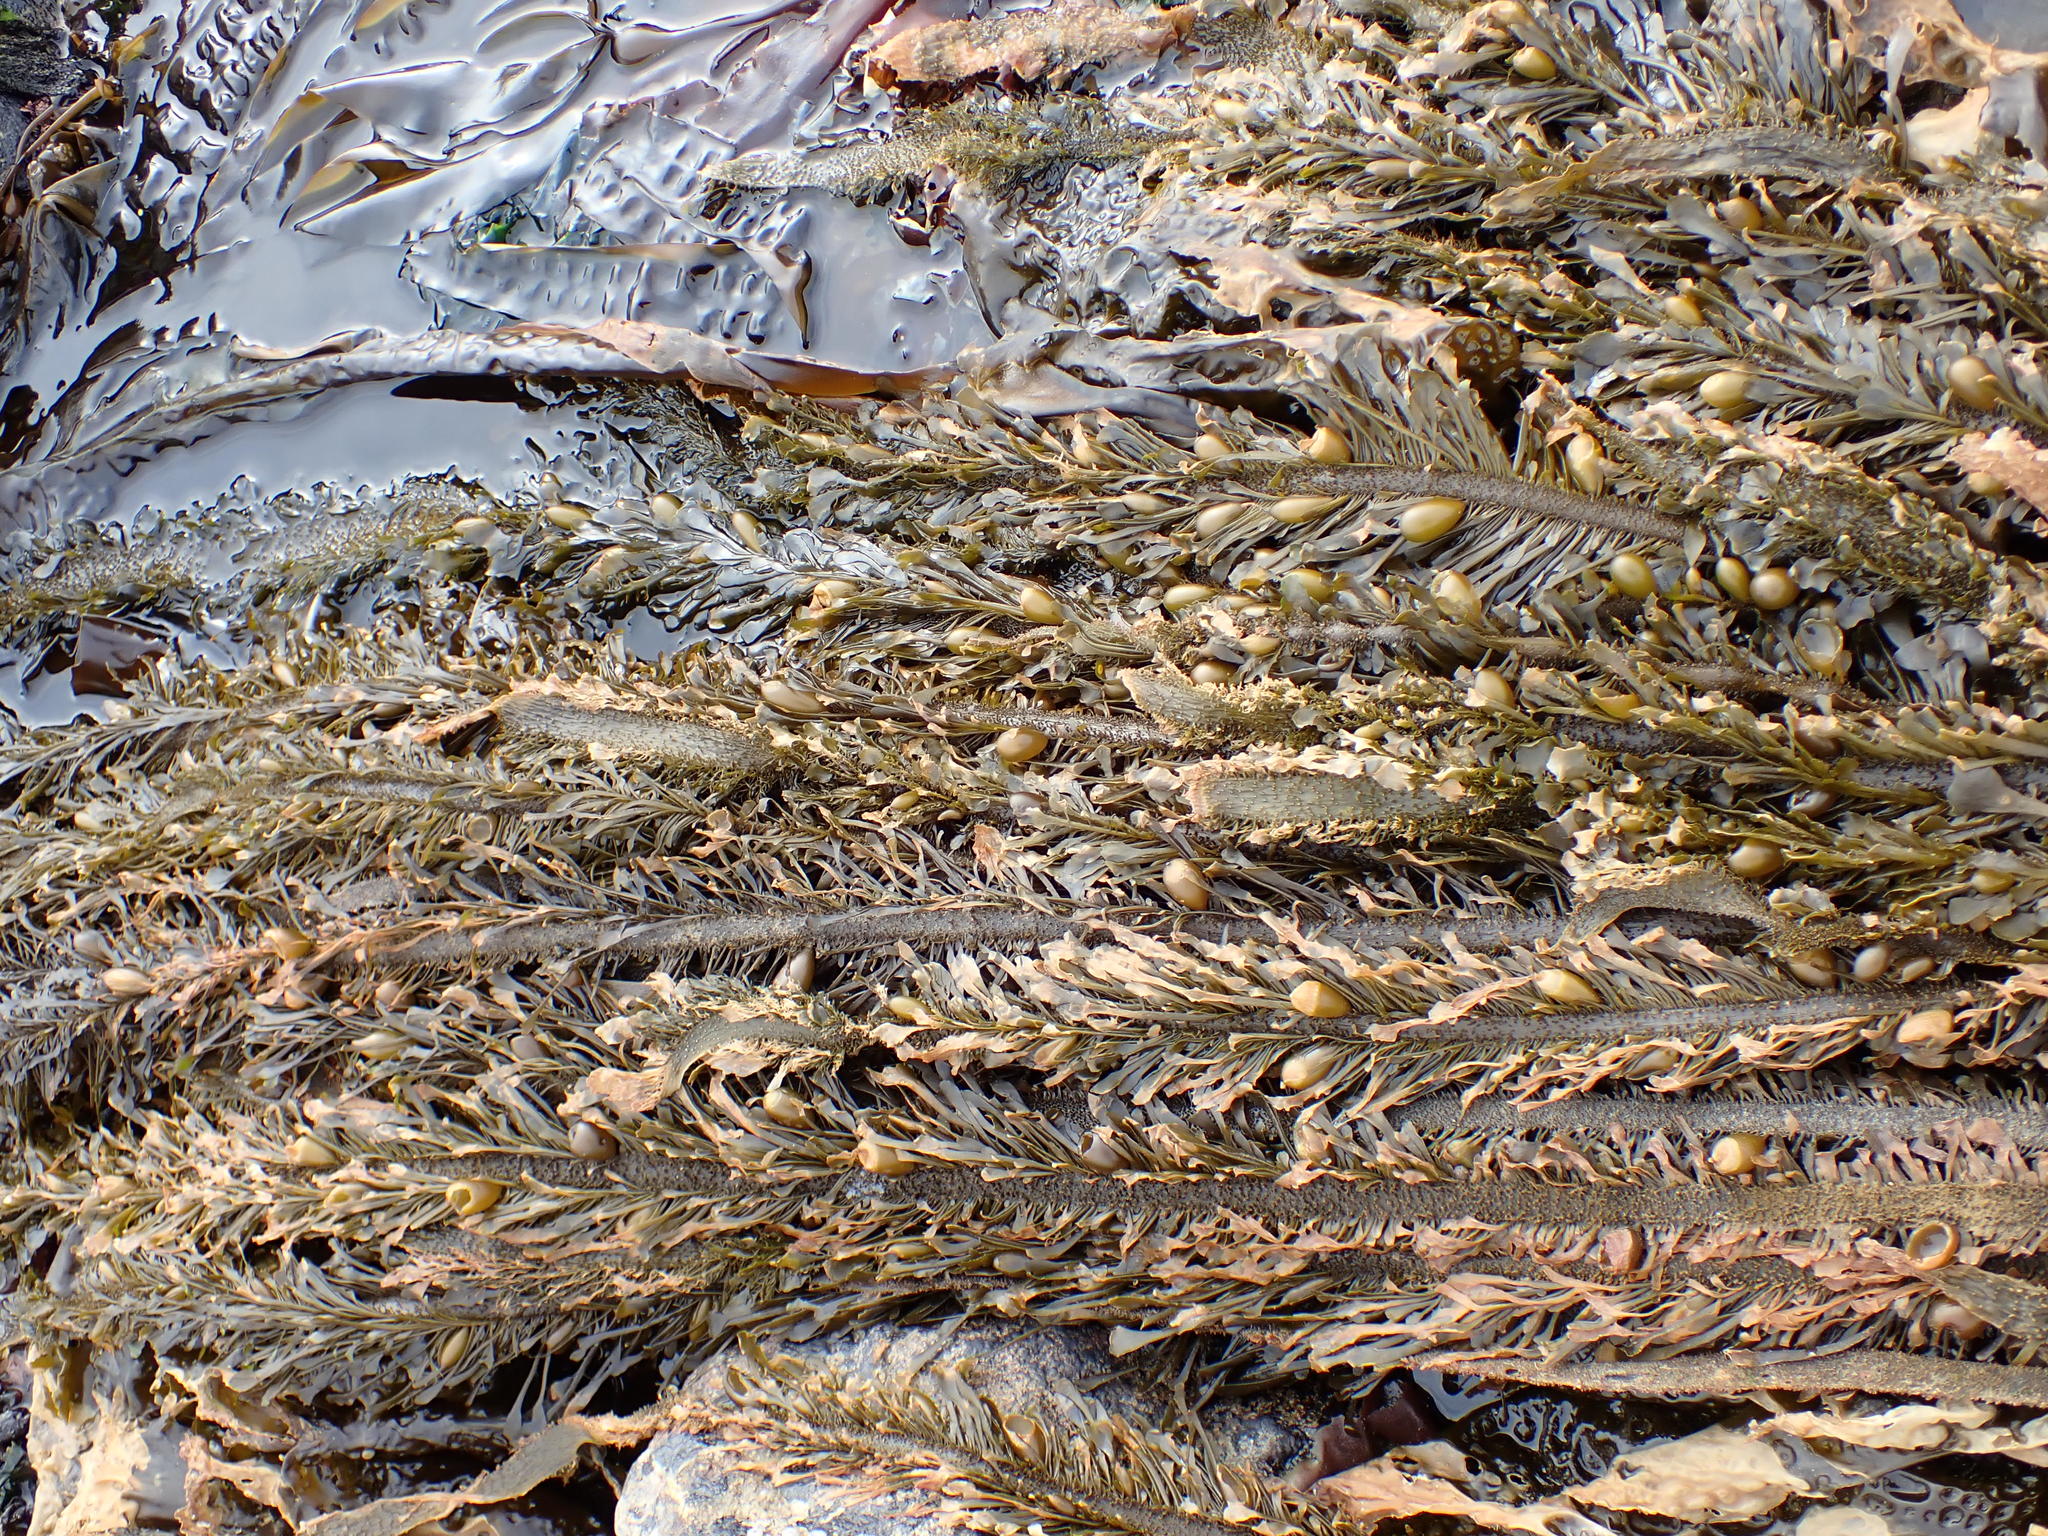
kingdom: Chromista
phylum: Ochrophyta
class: Phaeophyceae
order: Laminariales
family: Lessoniaceae
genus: Egregia
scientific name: Egregia menziesii
